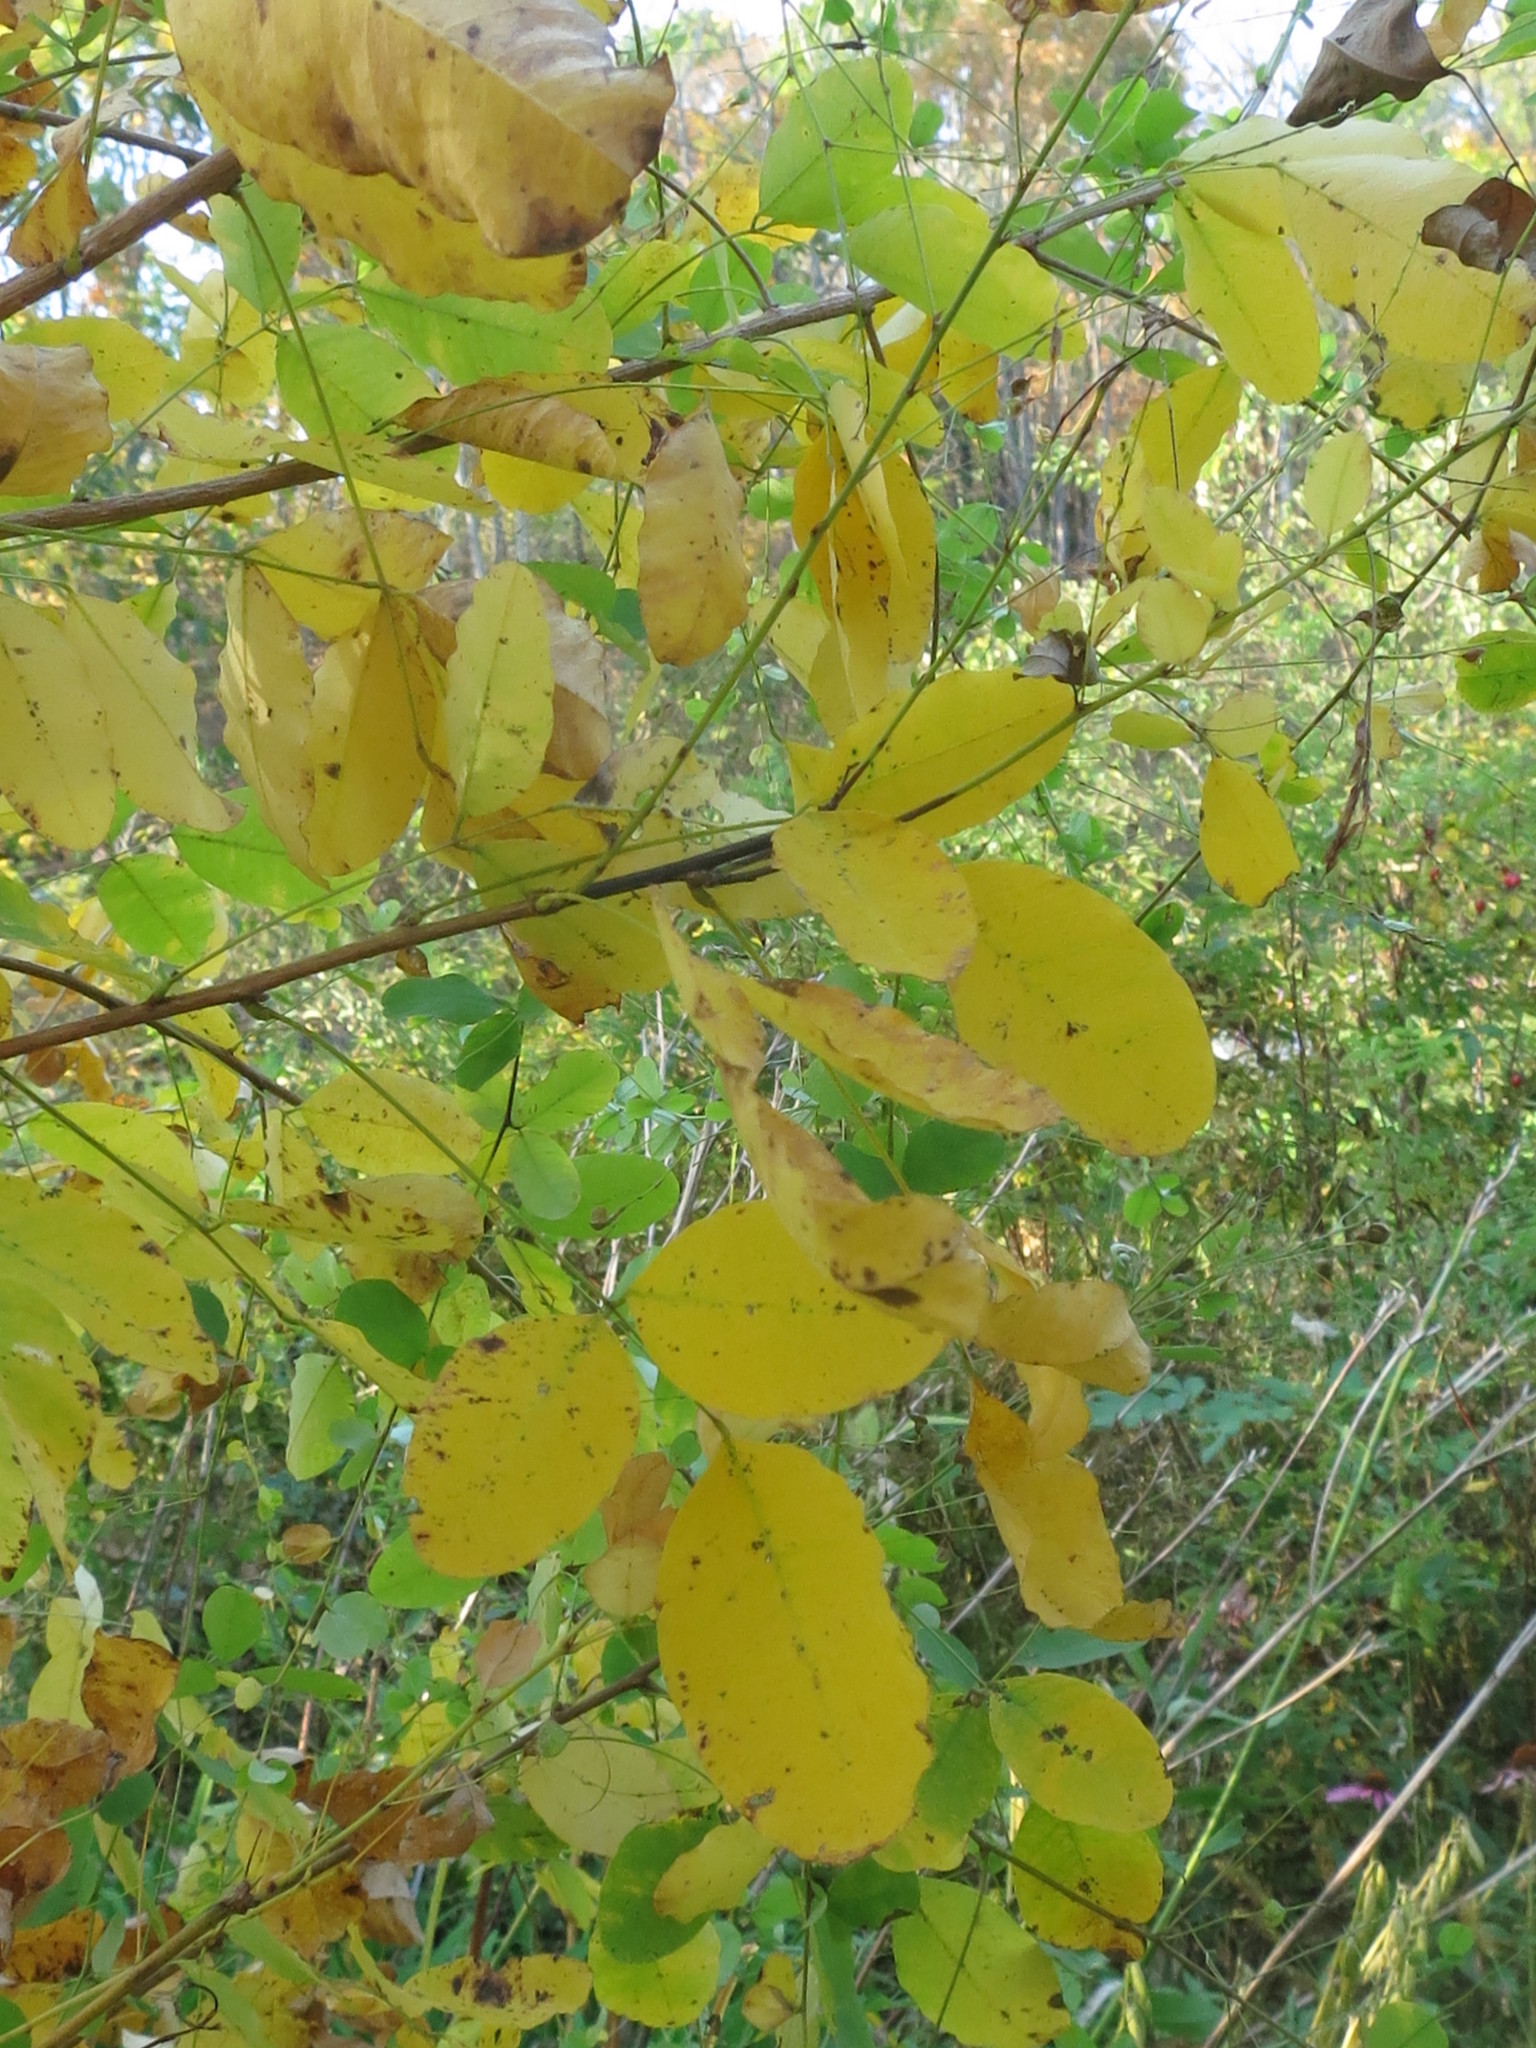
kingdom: Plantae
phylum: Tracheophyta
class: Magnoliopsida
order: Fabales
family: Fabaceae
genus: Lespedeza
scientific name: Lespedeza bicolor
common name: Shrub lespedeza
